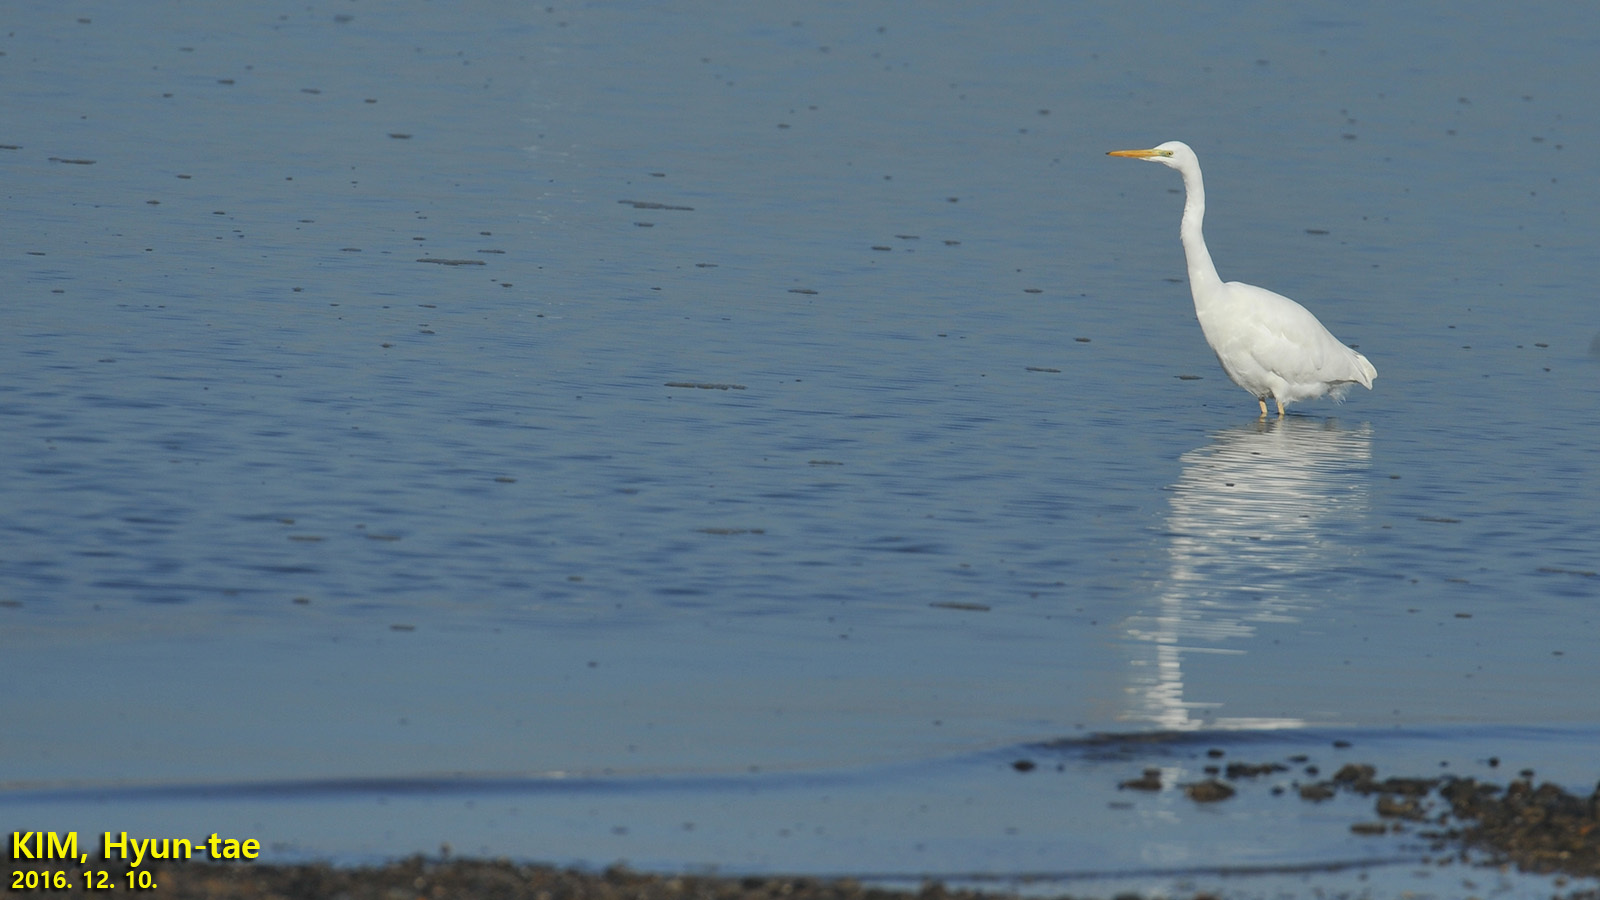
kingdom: Animalia
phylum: Chordata
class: Aves
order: Pelecaniformes
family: Ardeidae
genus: Ardea
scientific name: Ardea alba
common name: Great egret
